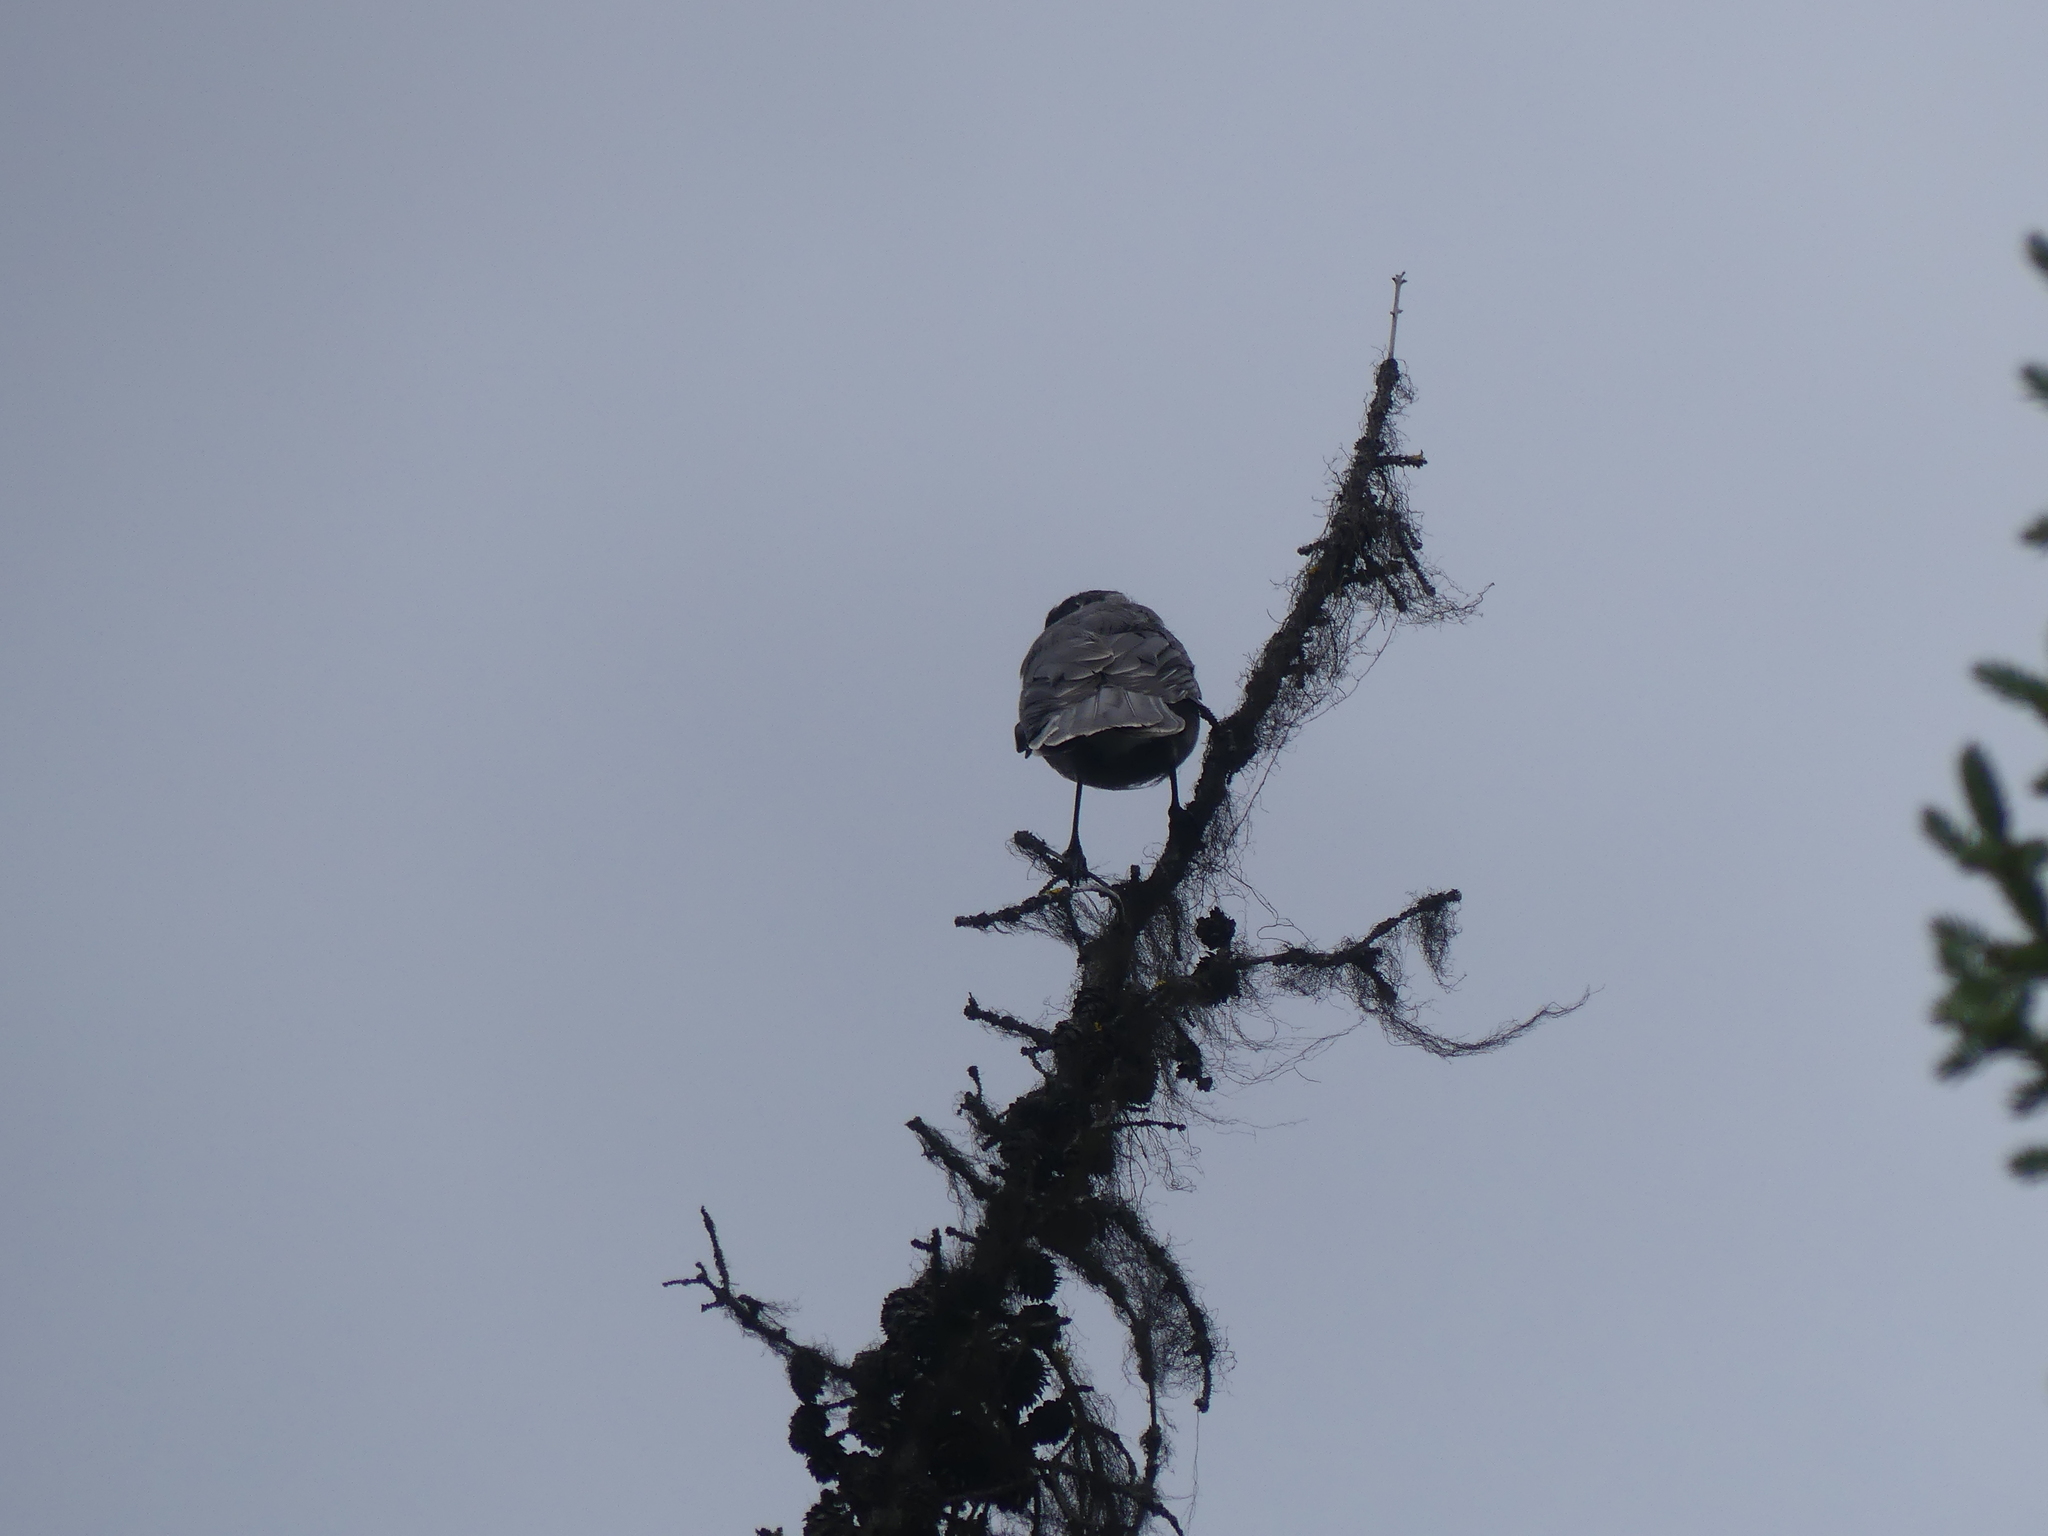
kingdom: Animalia
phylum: Chordata
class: Aves
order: Passeriformes
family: Corvidae
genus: Perisoreus
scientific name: Perisoreus canadensis
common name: Gray jay
